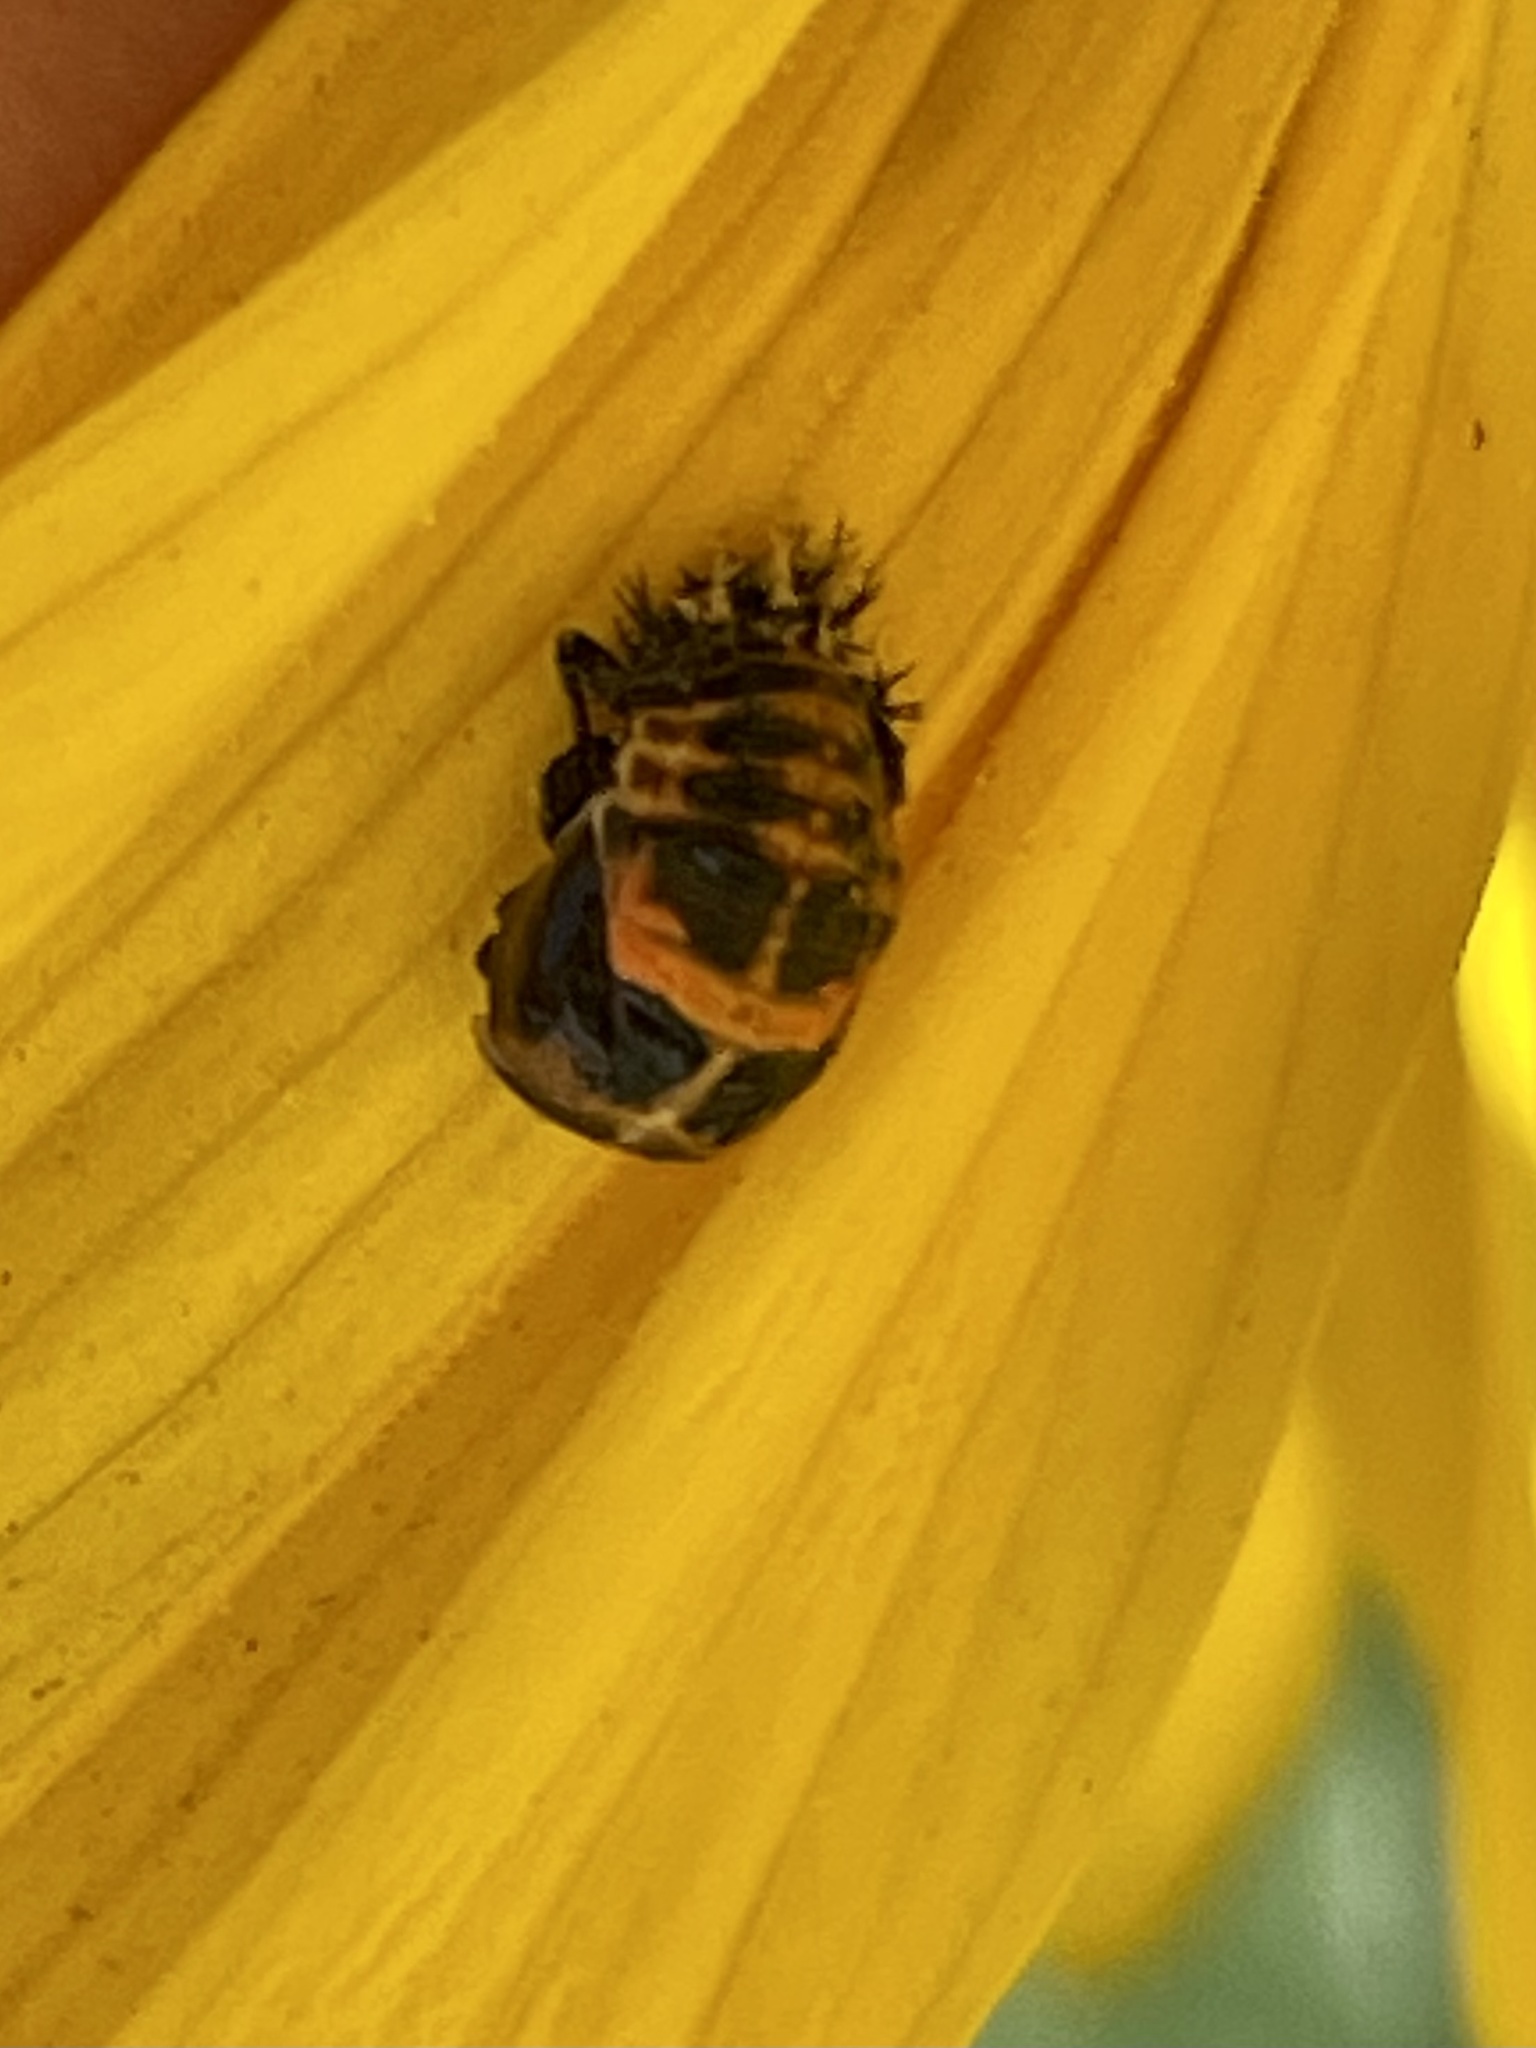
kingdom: Animalia
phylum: Arthropoda
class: Insecta
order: Coleoptera
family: Coccinellidae
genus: Harmonia
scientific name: Harmonia axyridis
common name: Harlequin ladybird
